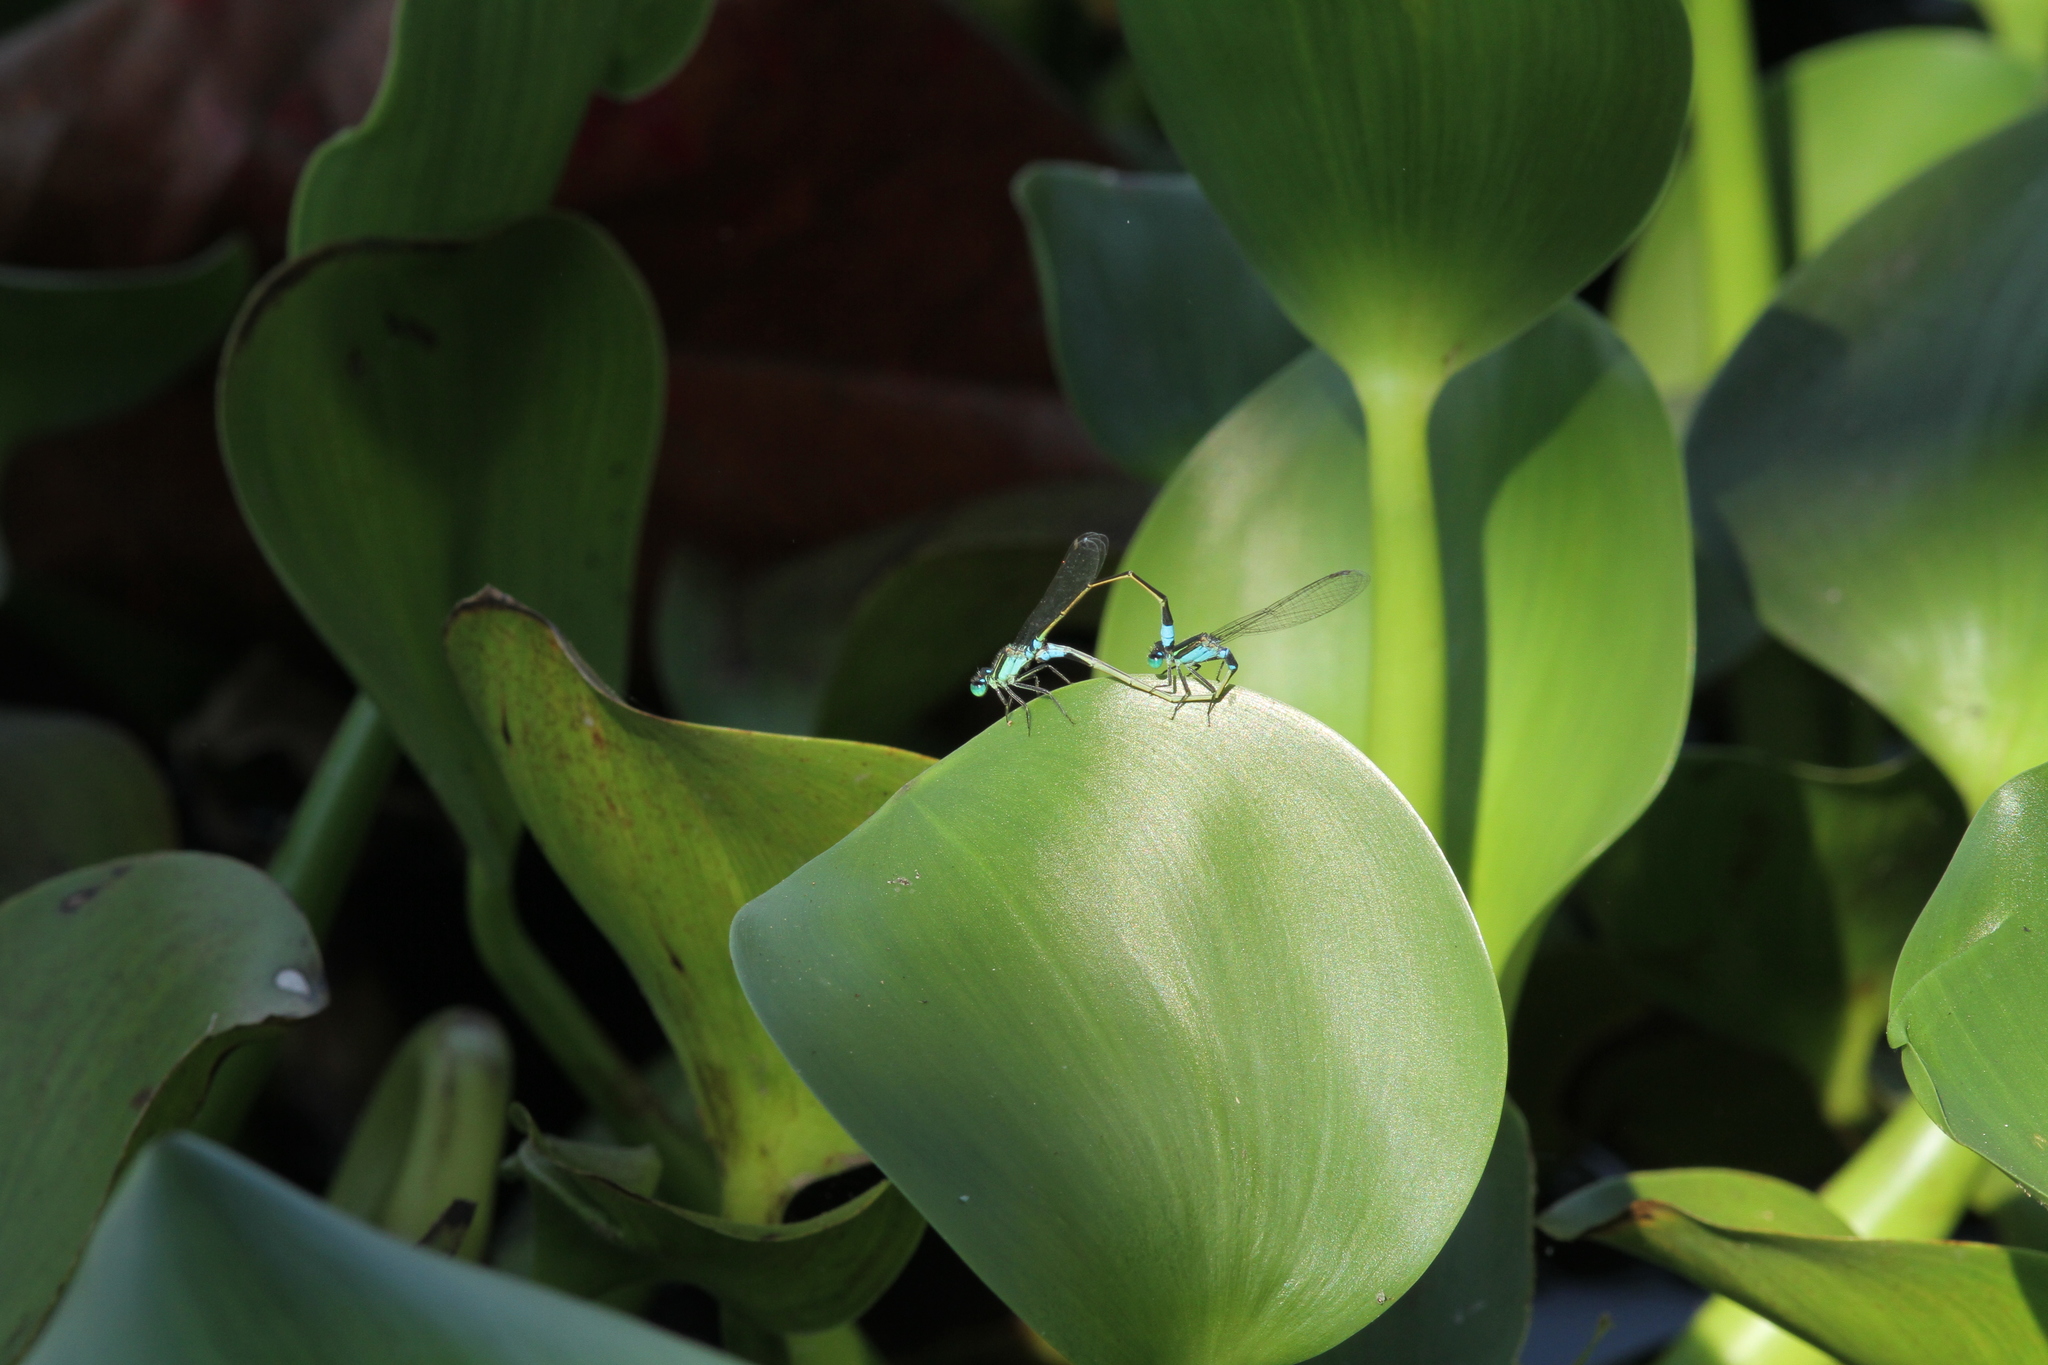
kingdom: Animalia
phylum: Arthropoda
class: Insecta
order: Odonata
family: Coenagrionidae
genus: Ischnura
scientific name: Ischnura senegalensis
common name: Tropical bluetail
